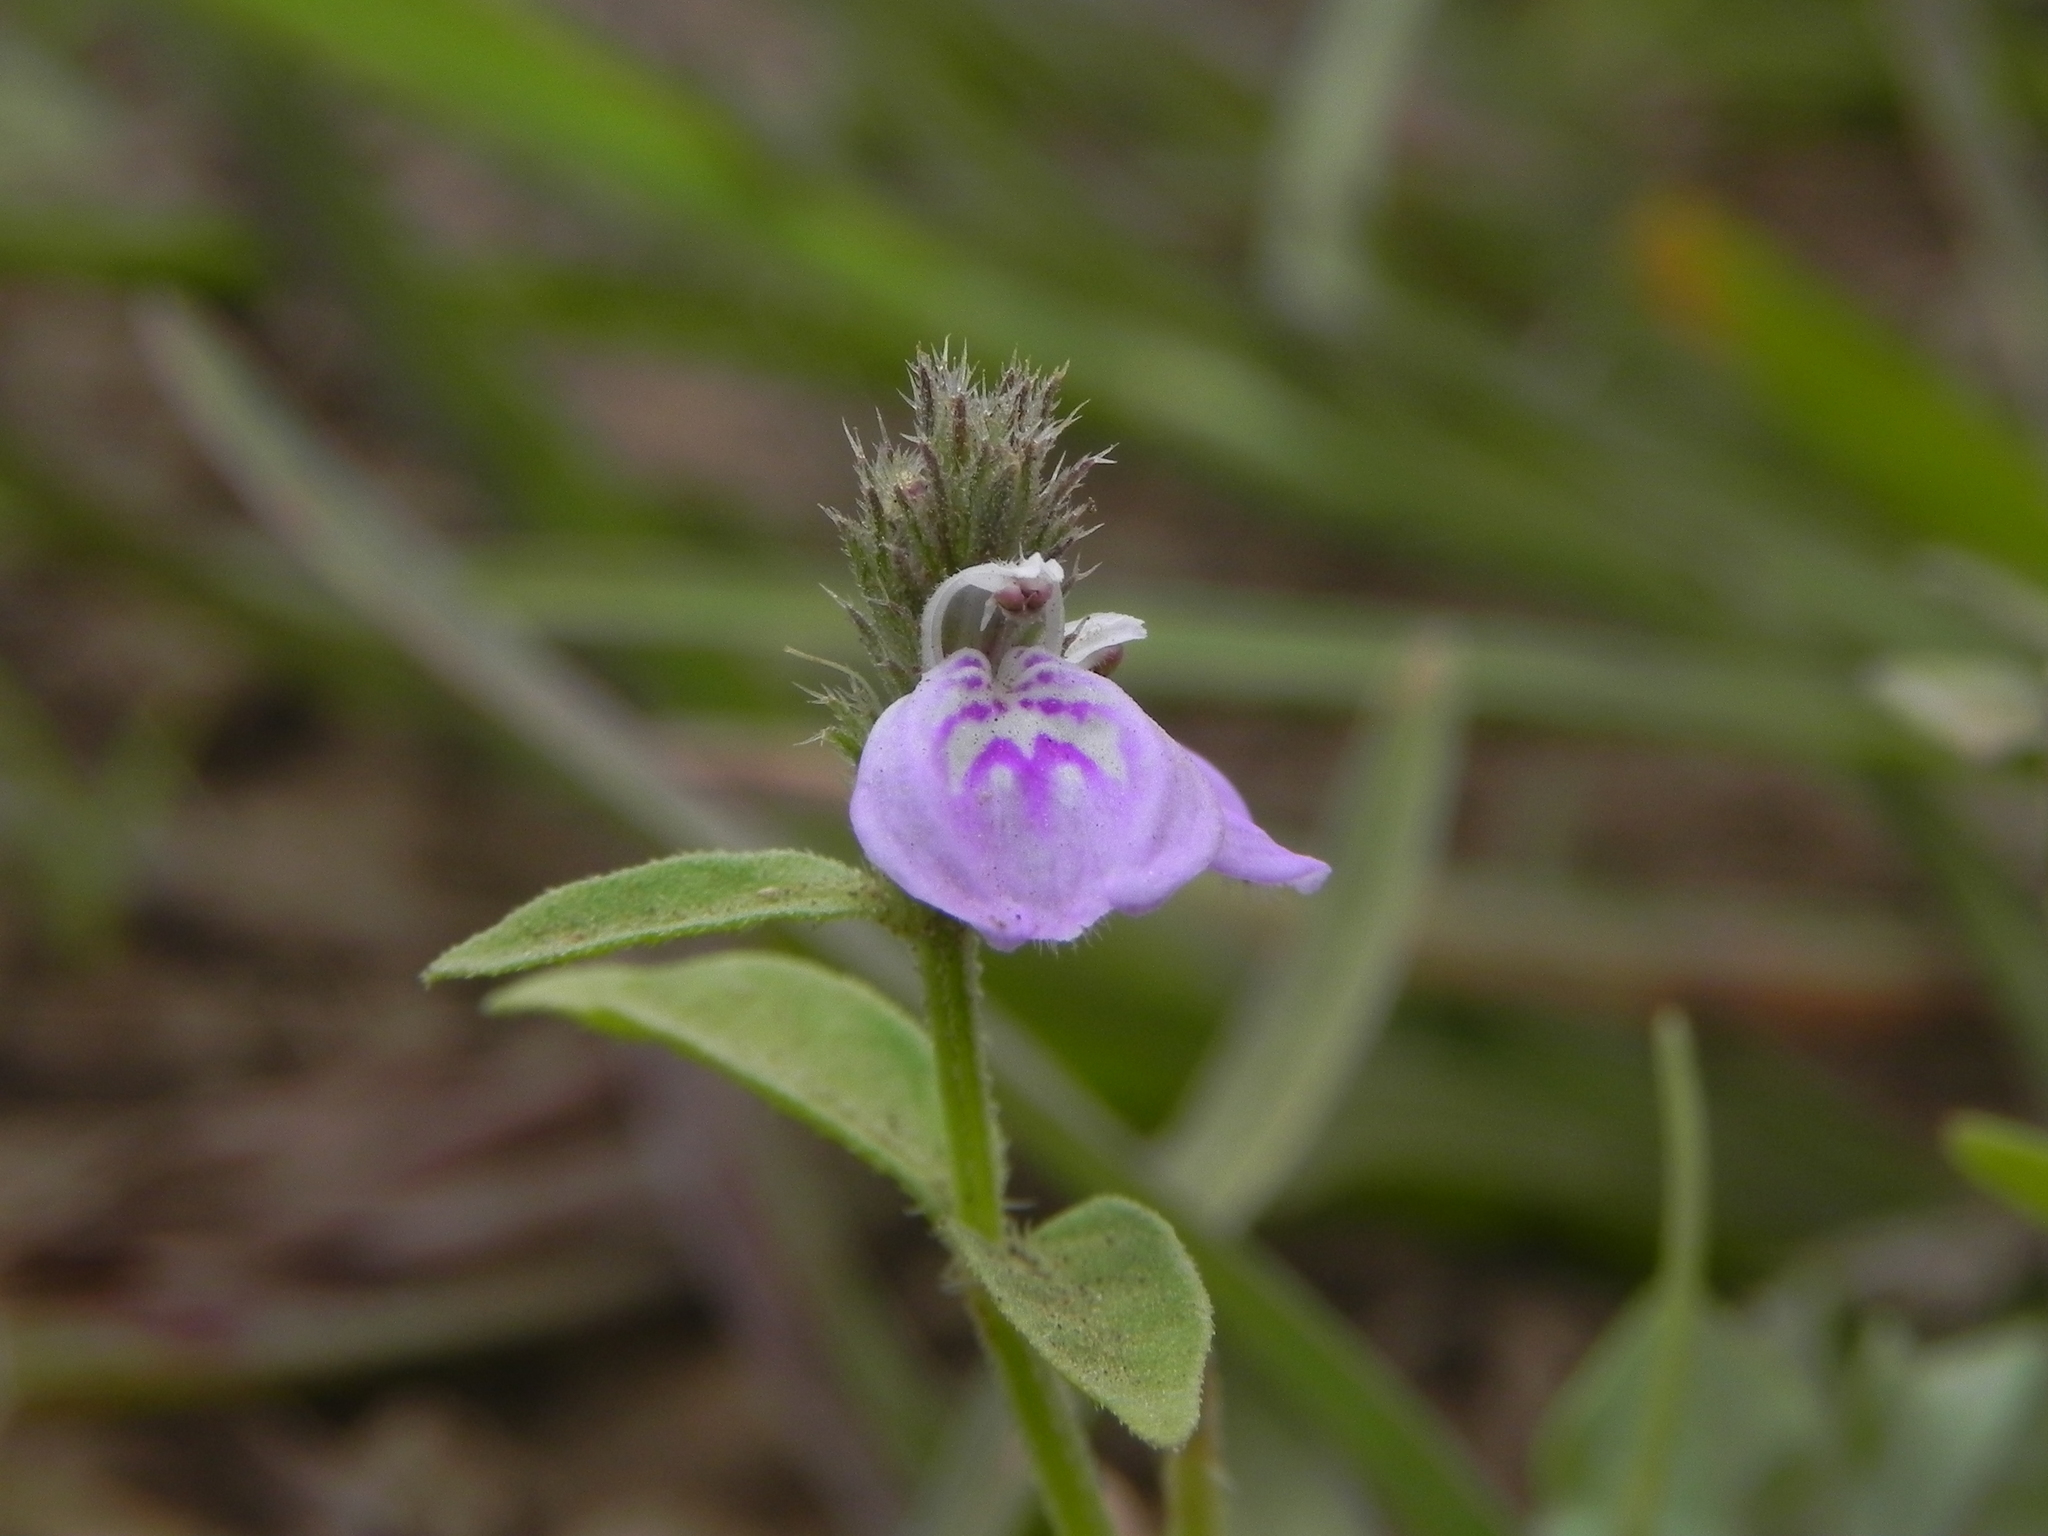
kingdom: Plantae
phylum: Tracheophyta
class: Magnoliopsida
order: Lamiales
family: Acanthaceae
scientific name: Acanthaceae
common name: Acanthaceae
